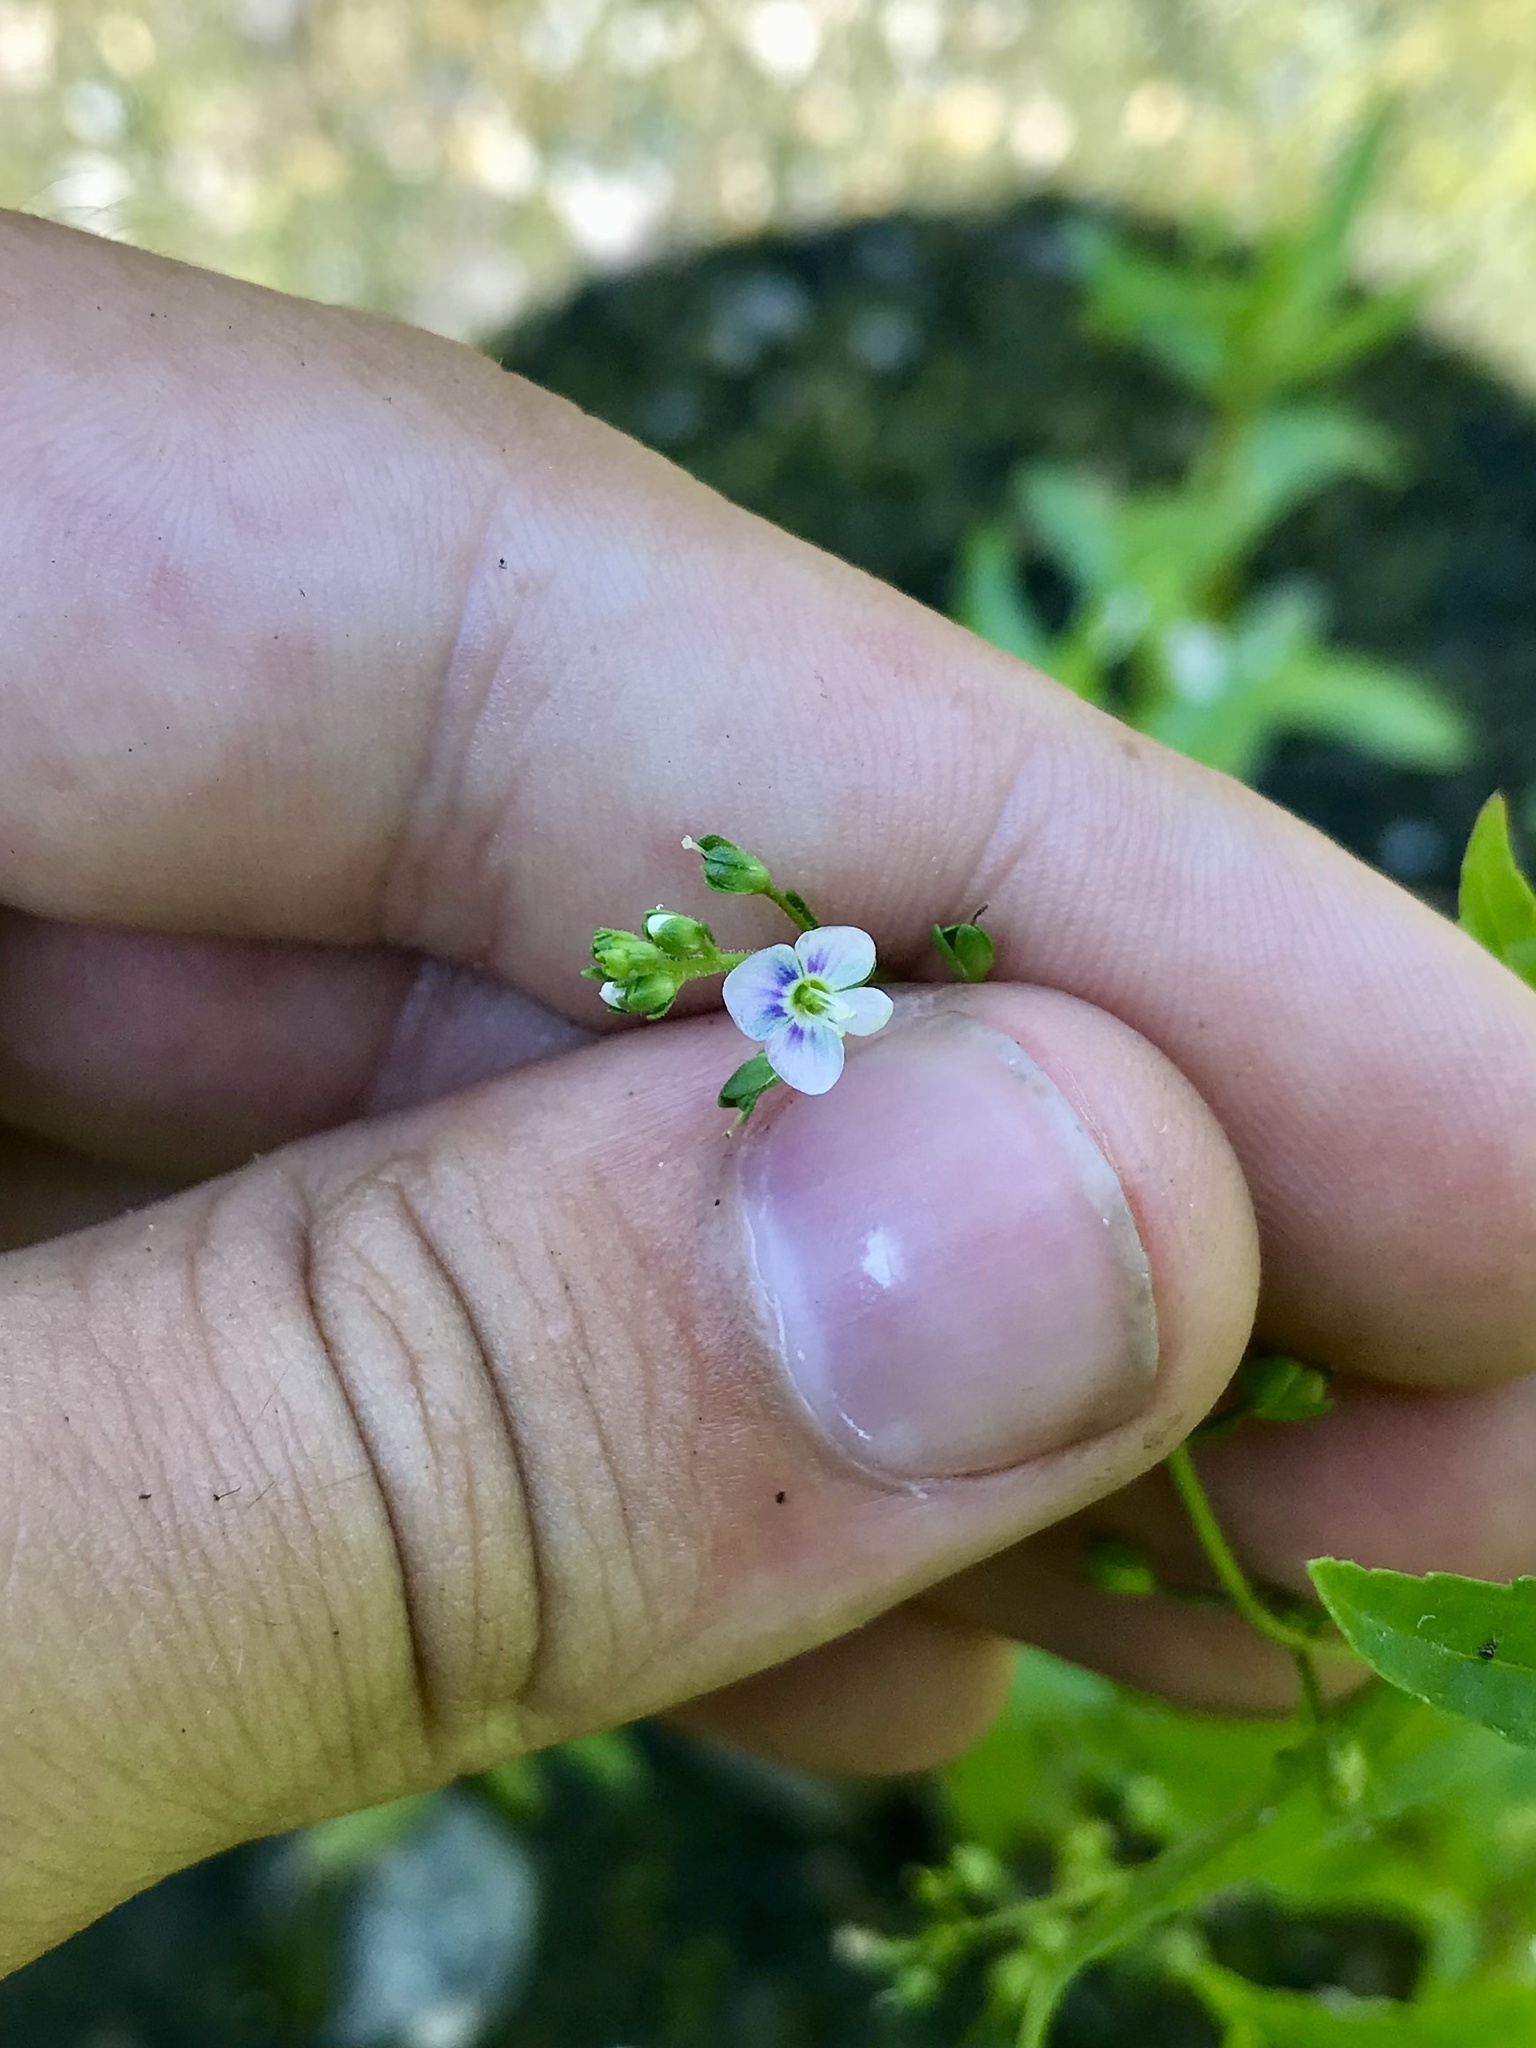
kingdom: Plantae
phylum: Tracheophyta
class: Magnoliopsida
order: Lamiales
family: Plantaginaceae
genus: Veronica
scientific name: Veronica catenata
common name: Pink water-speedwell
